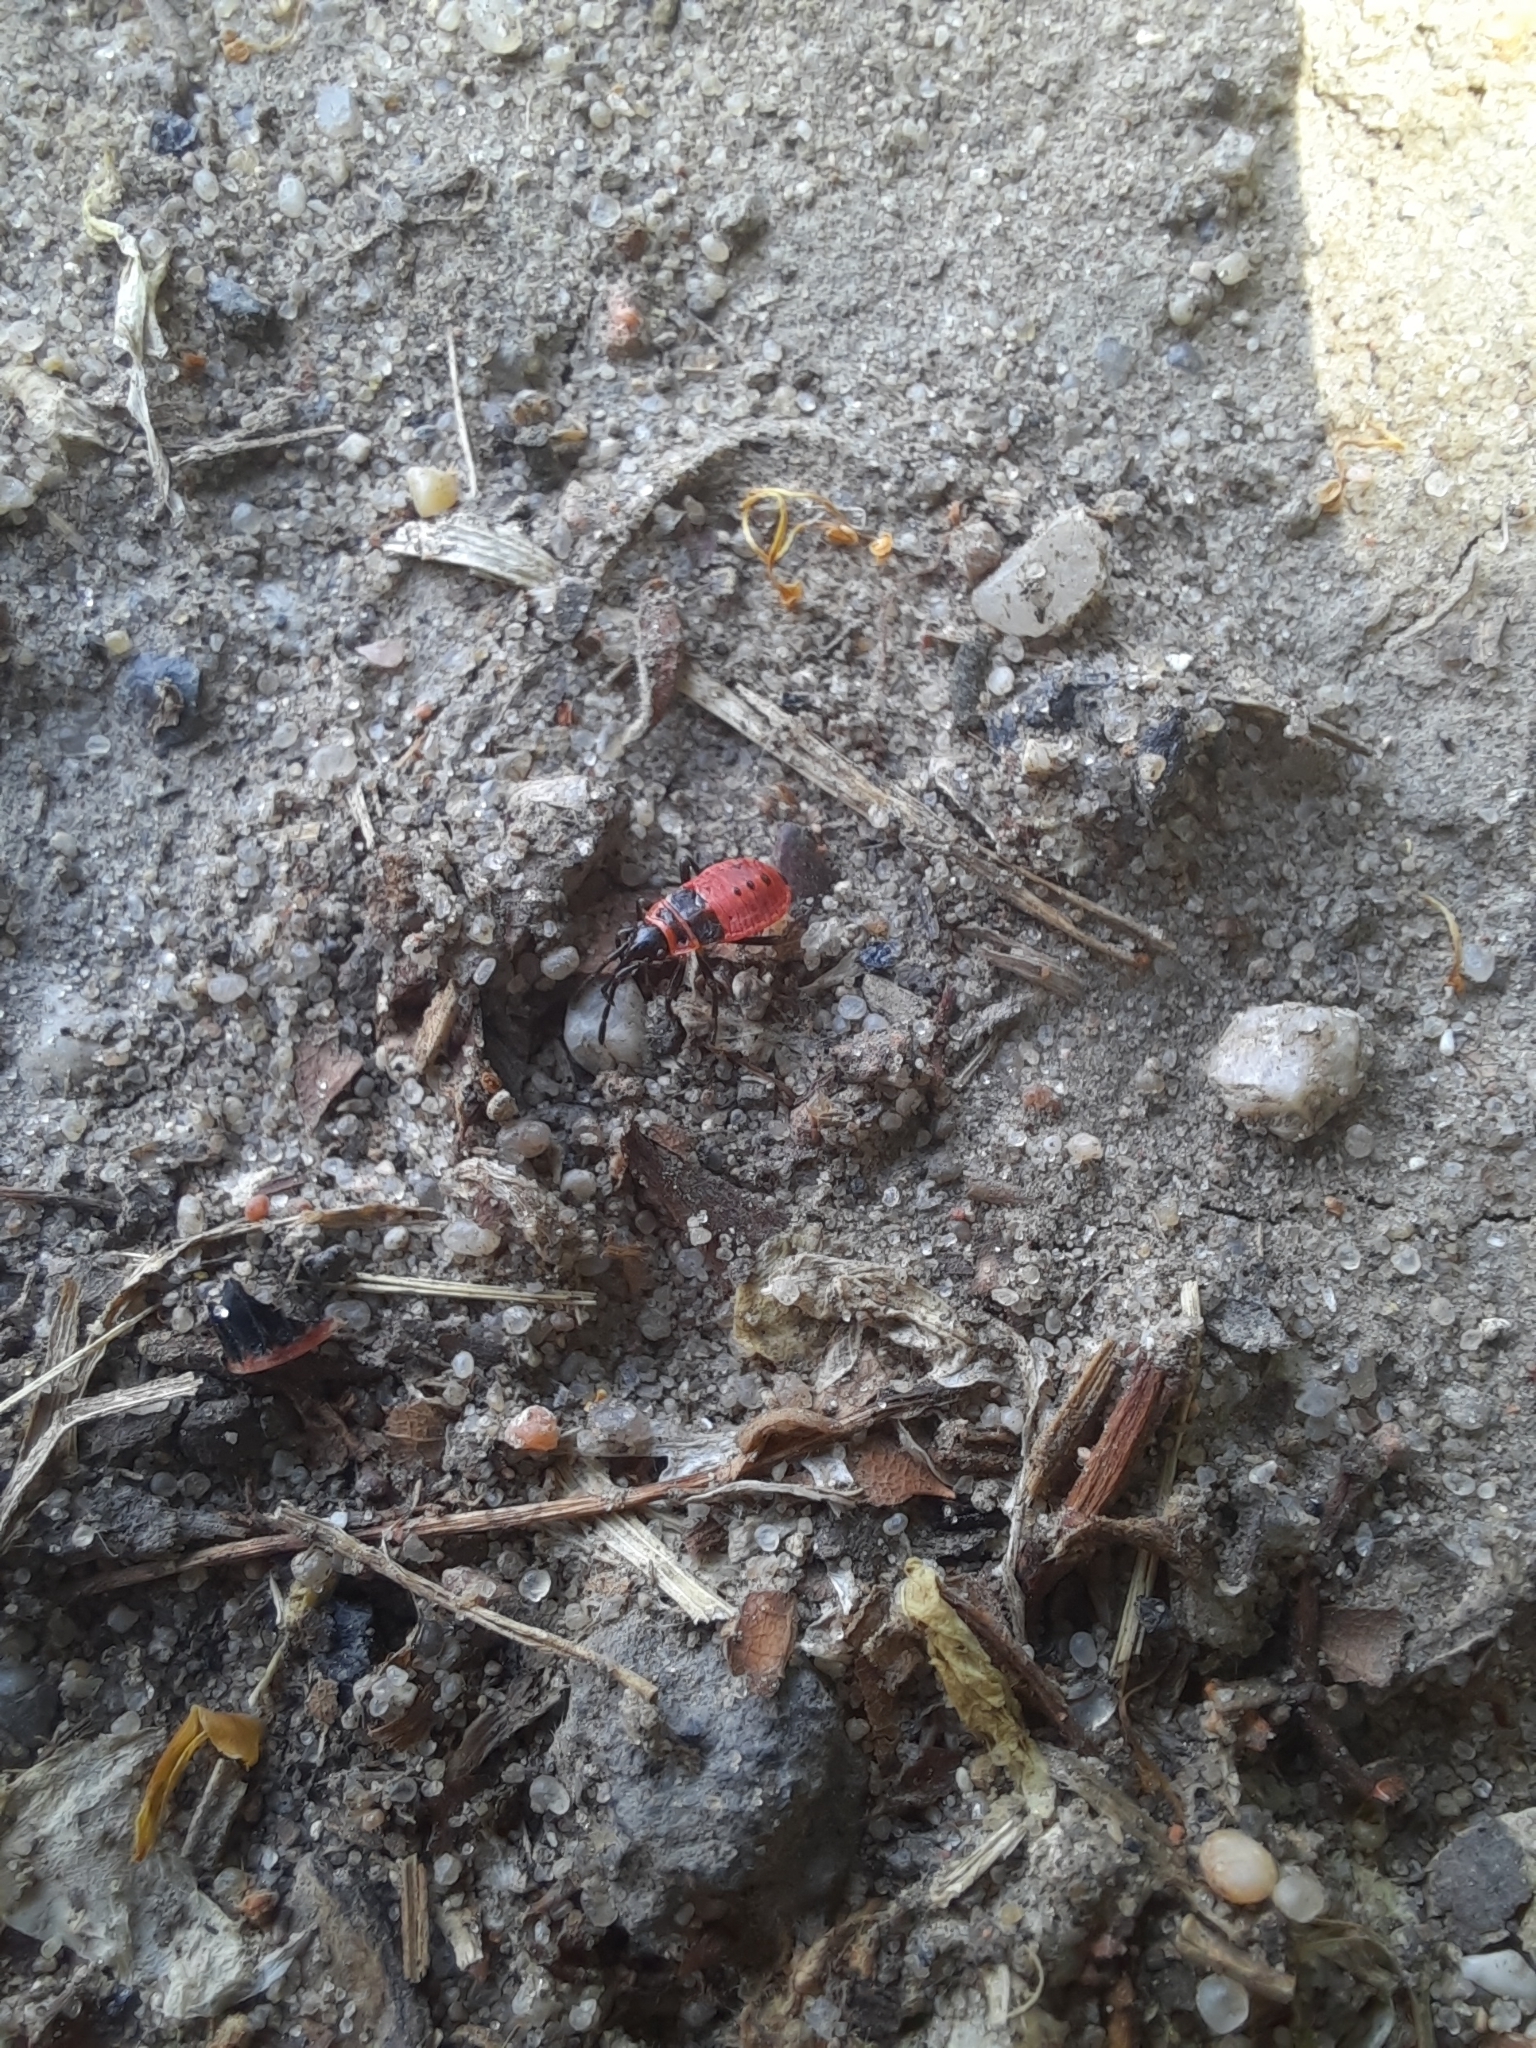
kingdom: Animalia
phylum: Arthropoda
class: Insecta
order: Hemiptera
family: Pyrrhocoridae
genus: Pyrrhocoris
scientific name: Pyrrhocoris apterus
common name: Firebug
